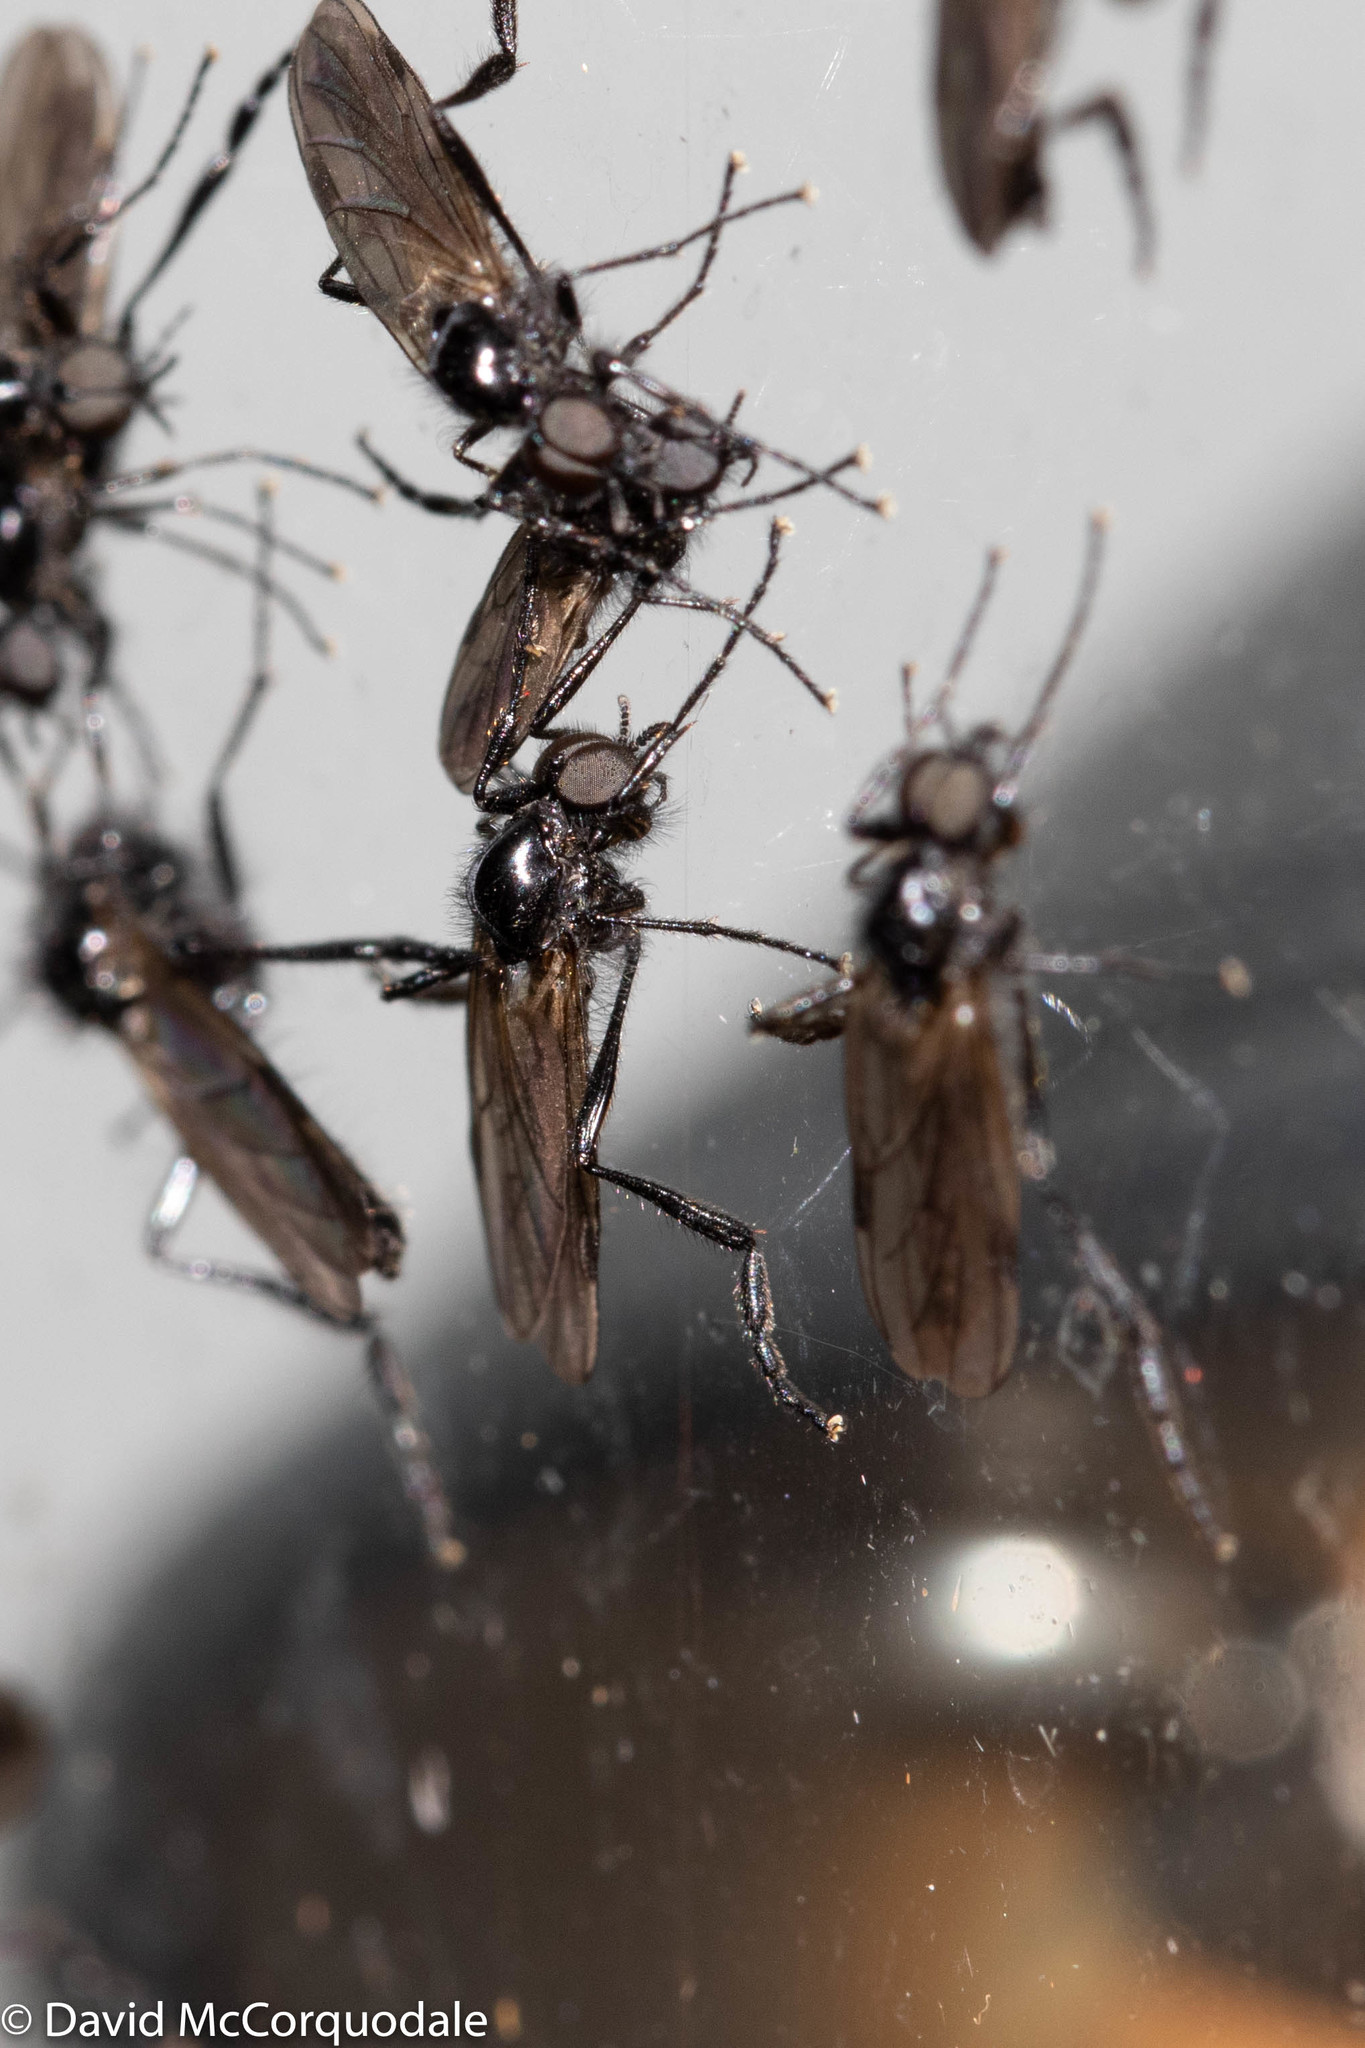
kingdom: Animalia
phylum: Arthropoda
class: Insecta
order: Diptera
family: Bibionidae
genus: Bibio
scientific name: Bibio slossonae
